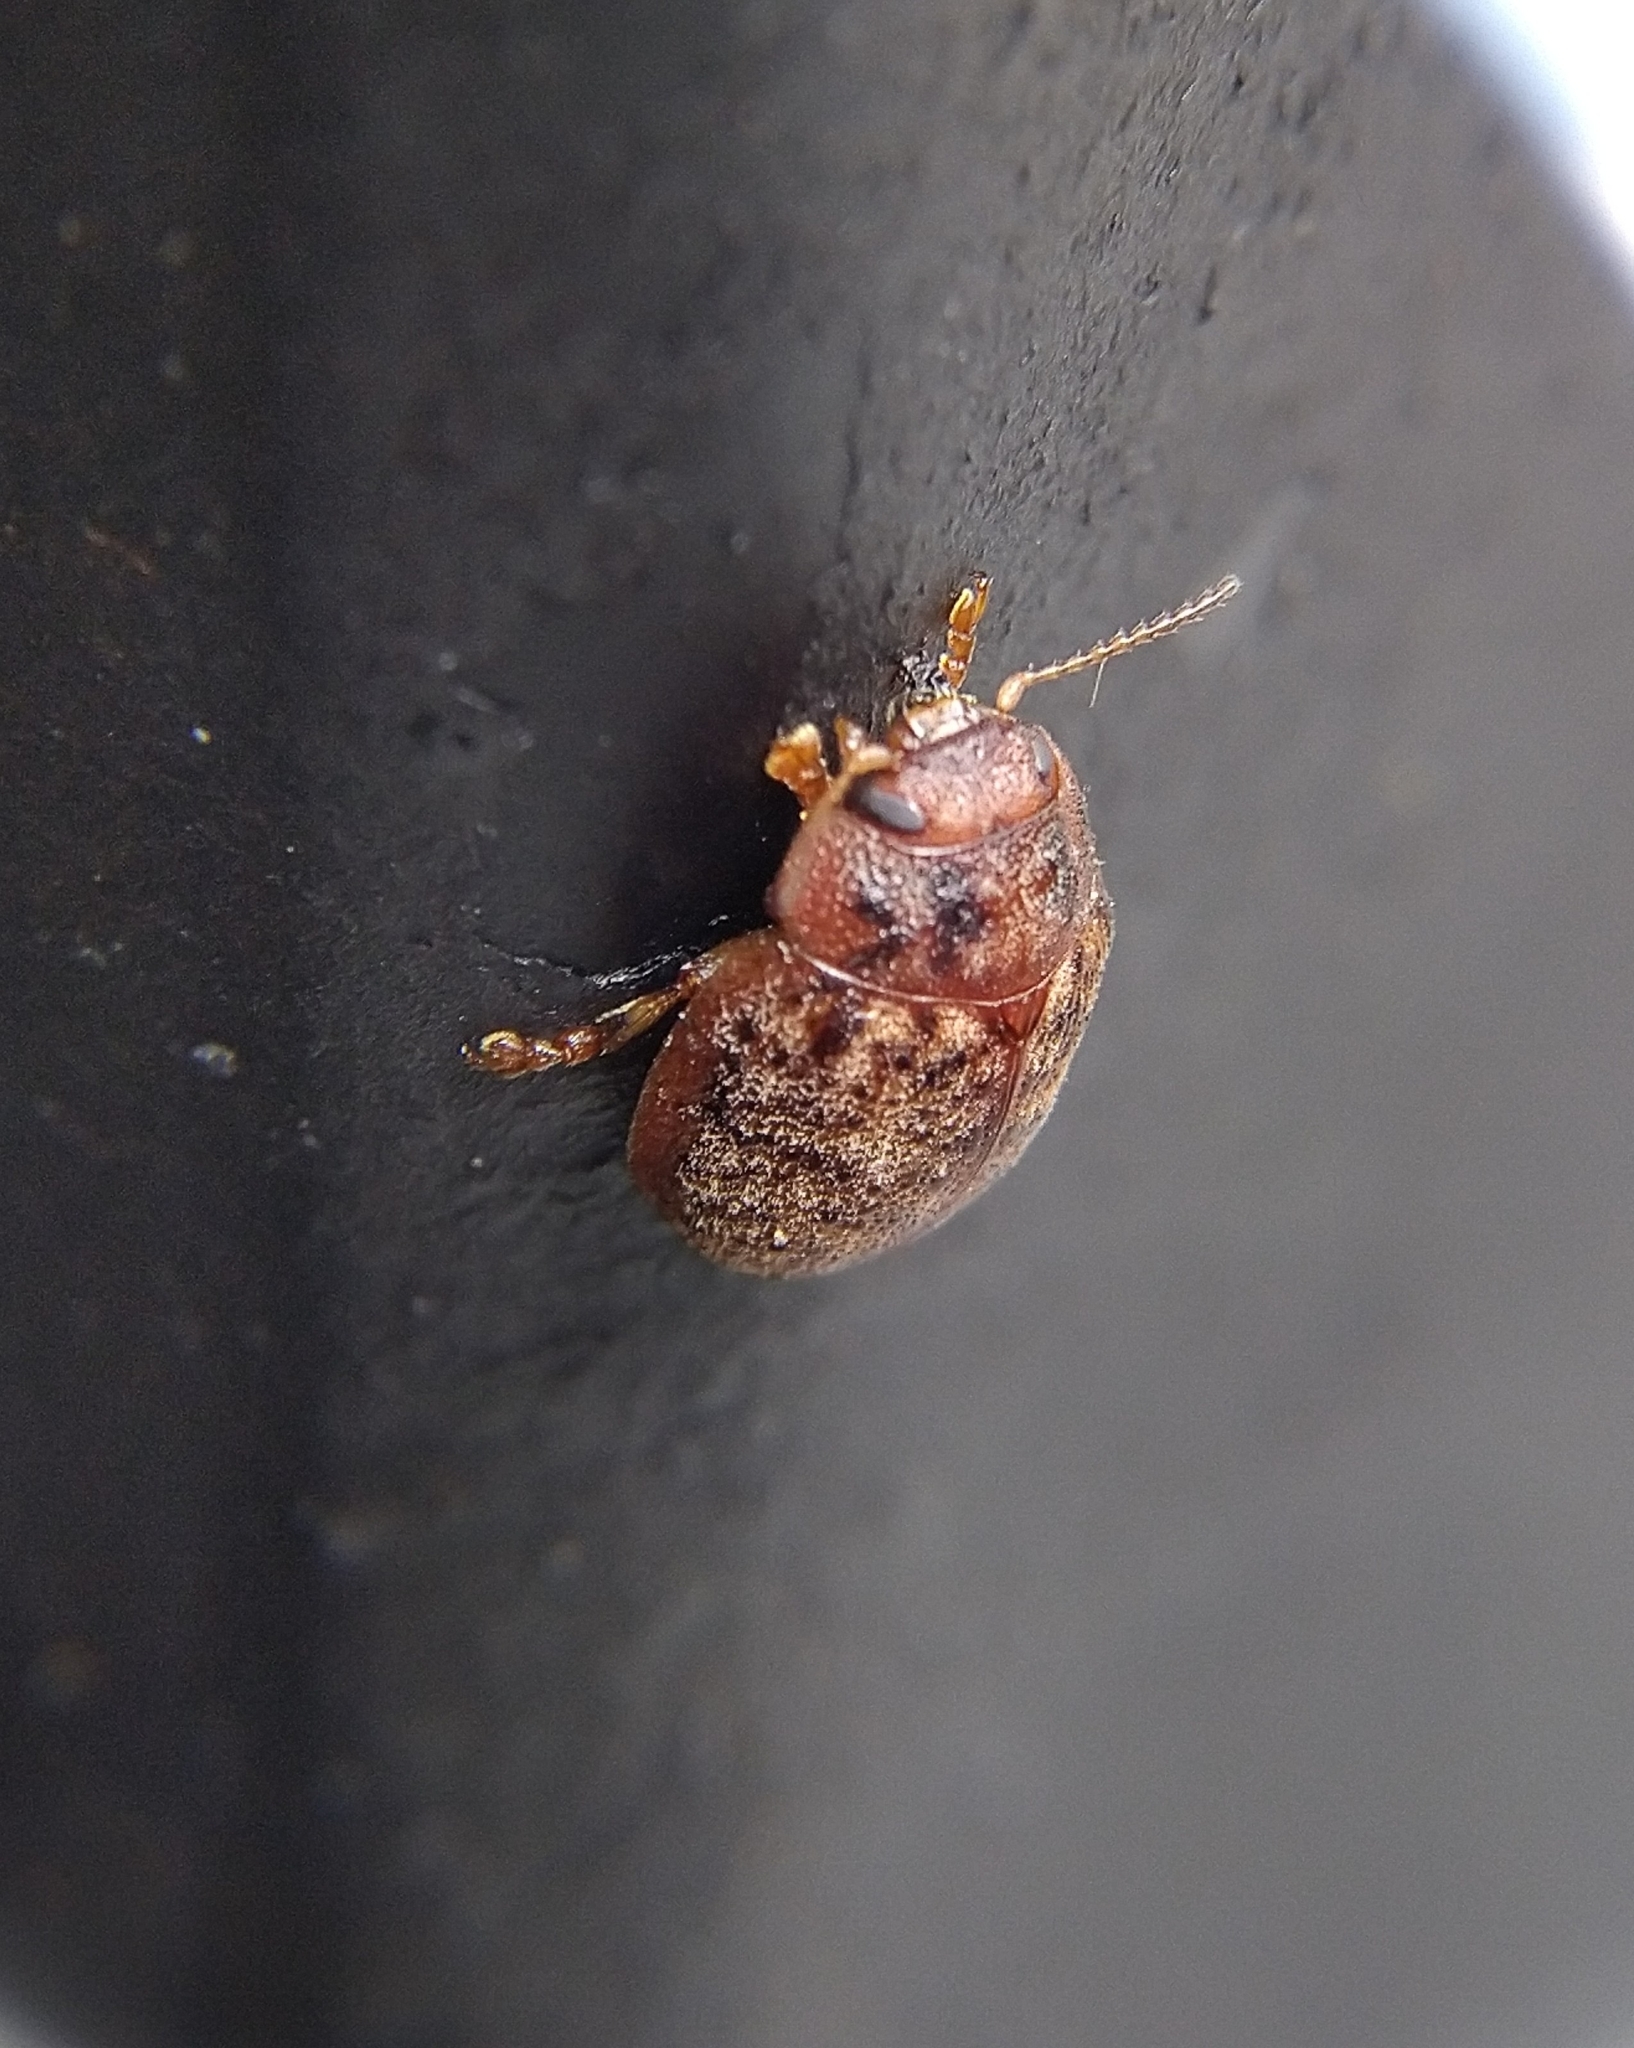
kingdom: Animalia
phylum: Arthropoda
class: Insecta
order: Coleoptera
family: Chrysomelidae
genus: Trachymela
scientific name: Trachymela sloanei
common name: Australian tortoise beetle
